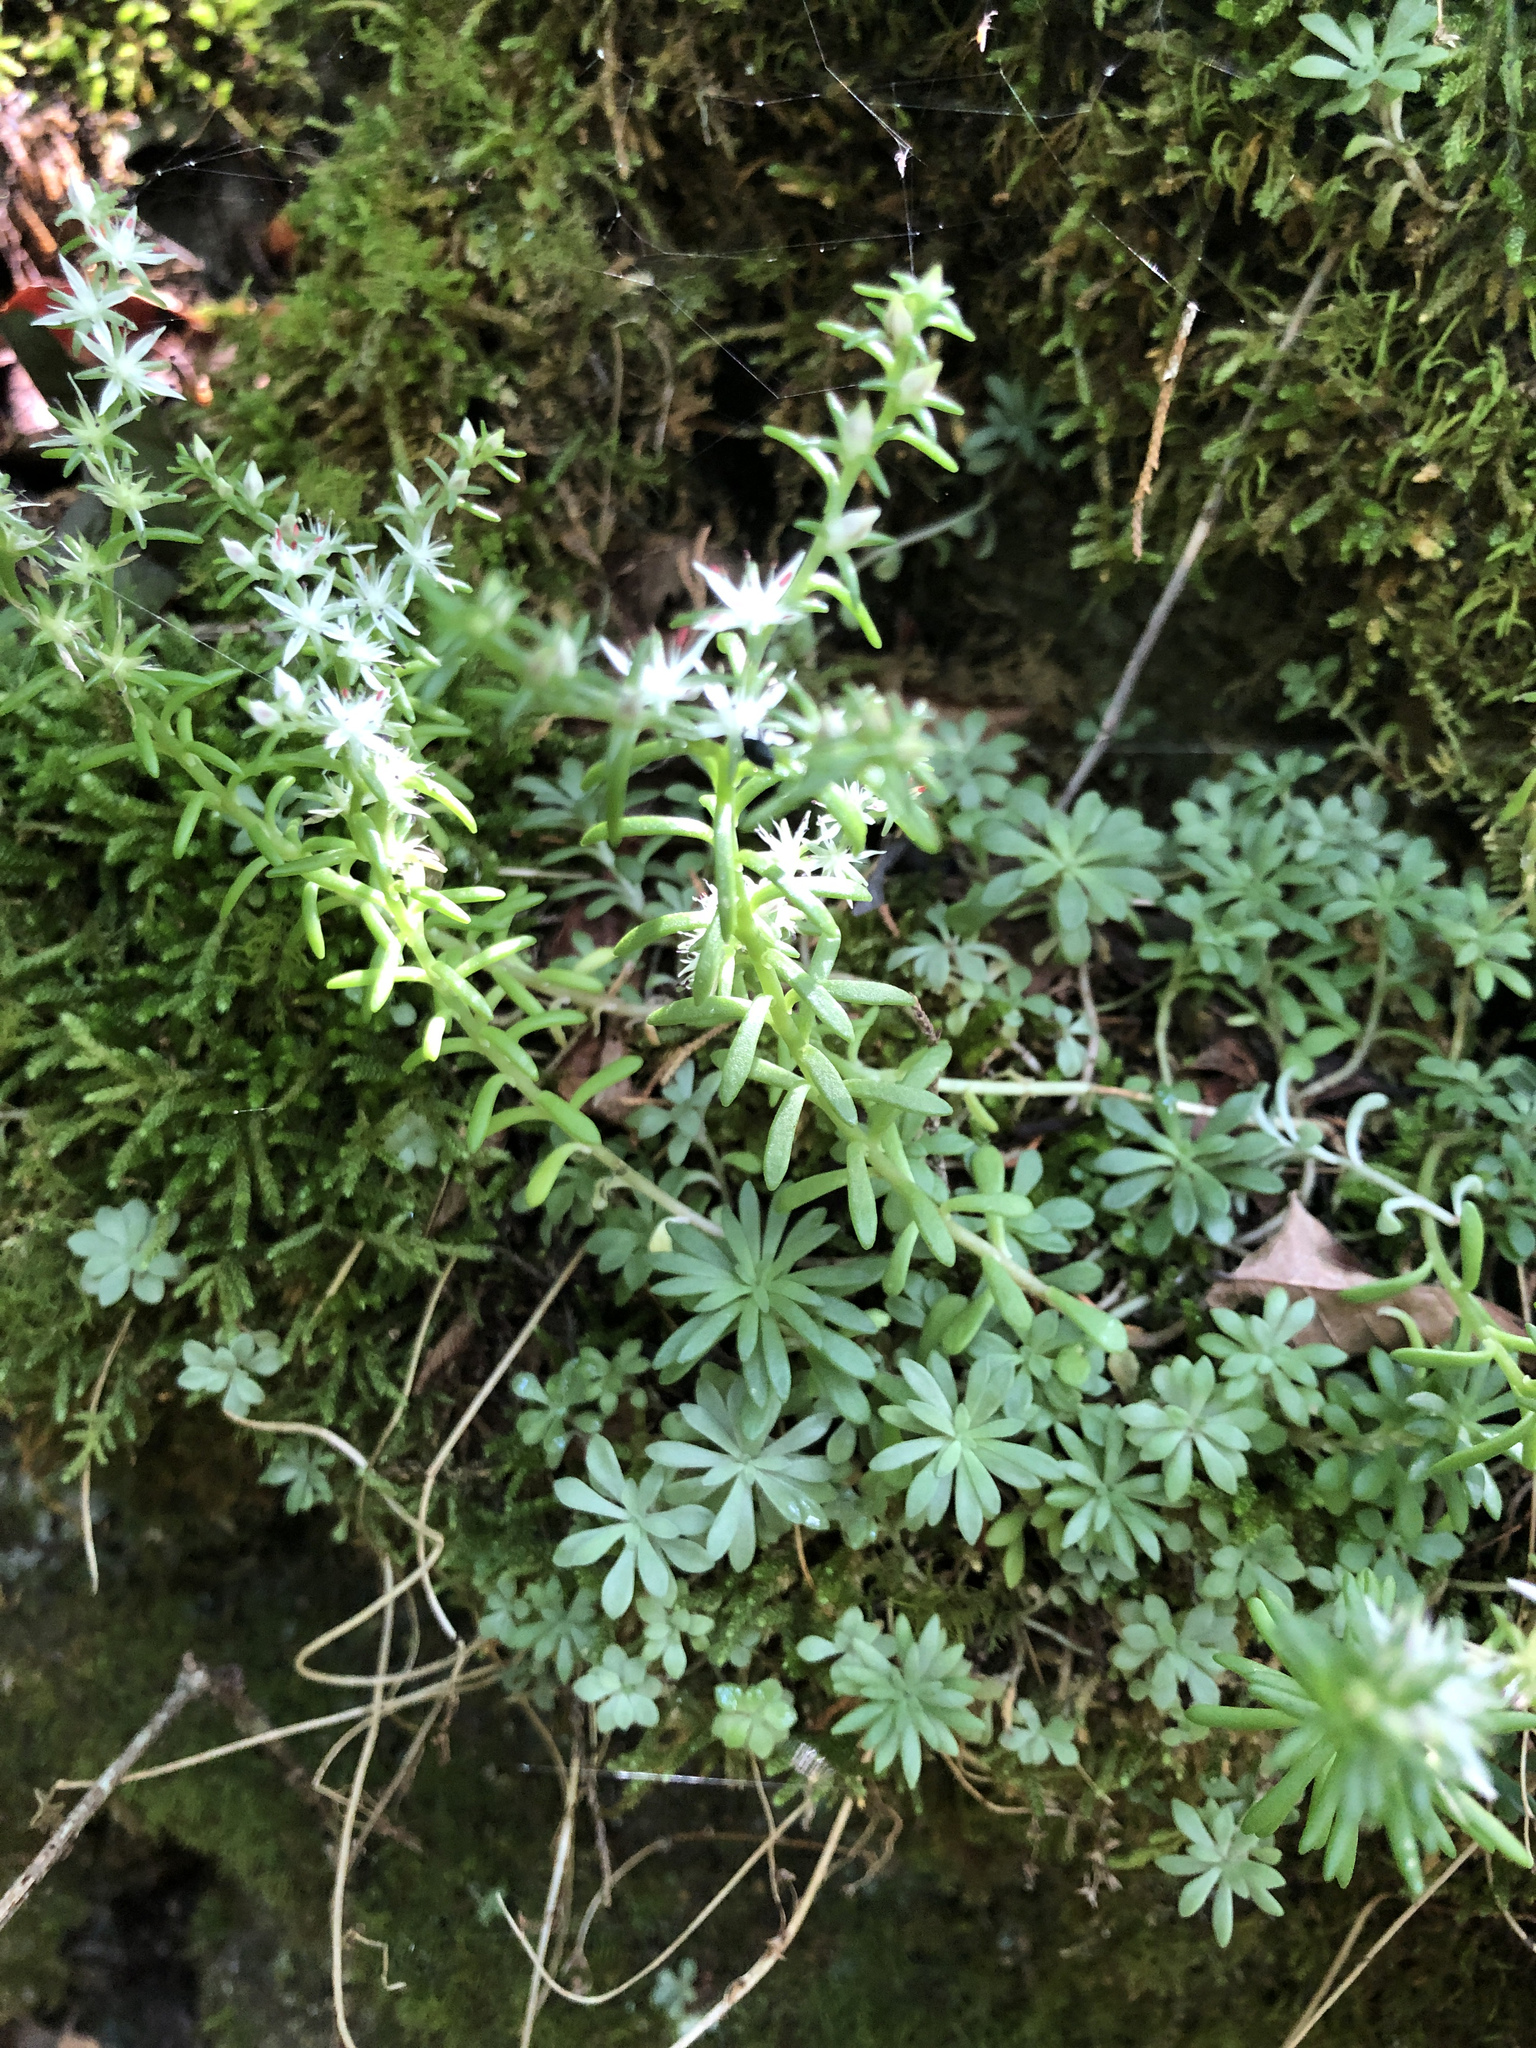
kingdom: Plantae
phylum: Tracheophyta
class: Magnoliopsida
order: Saxifragales
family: Crassulaceae
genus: Sedum
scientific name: Sedum nevii
